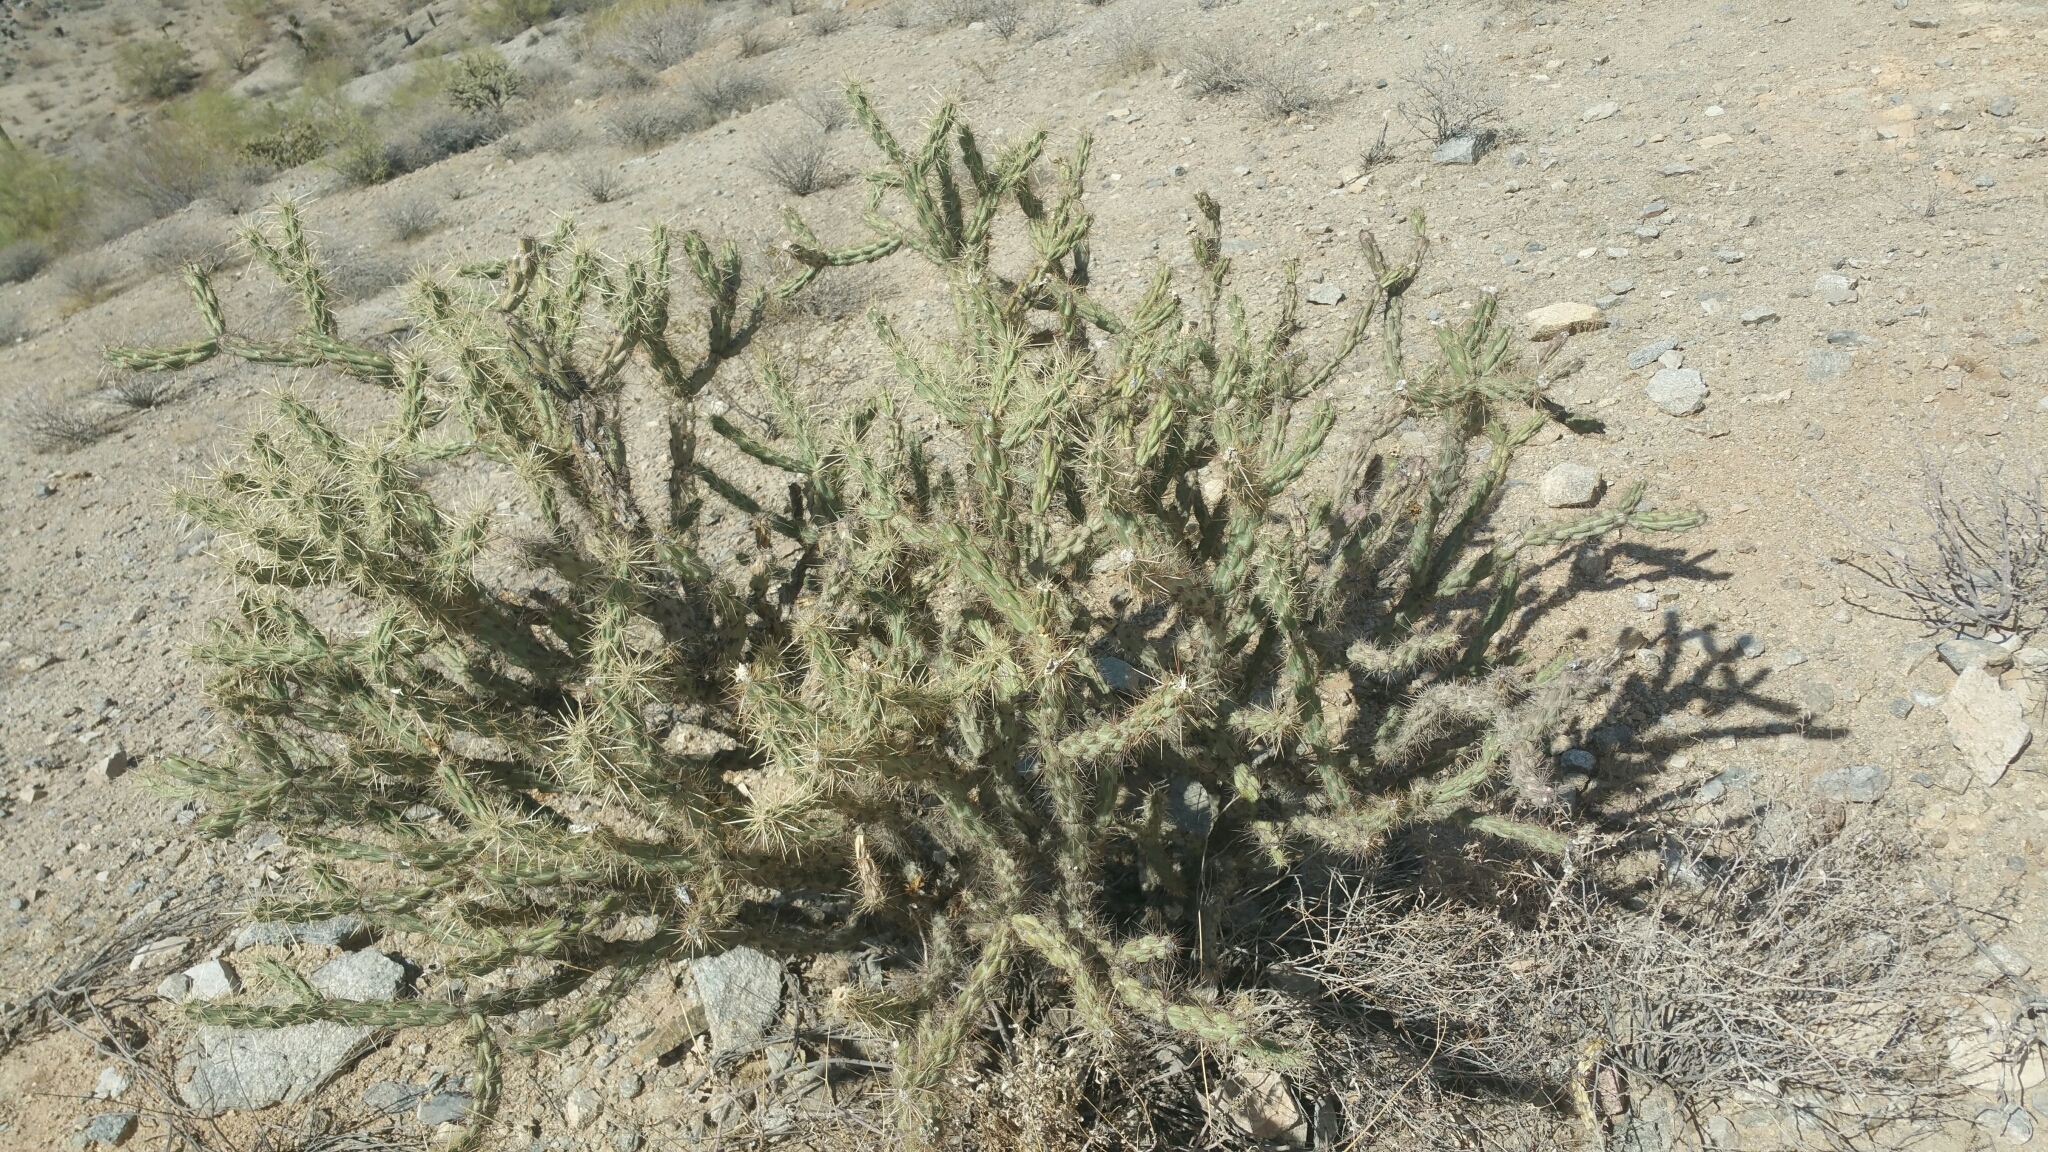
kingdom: Plantae
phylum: Tracheophyta
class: Magnoliopsida
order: Caryophyllales
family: Cactaceae
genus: Cylindropuntia
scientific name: Cylindropuntia acanthocarpa
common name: Buckhorn cholla
